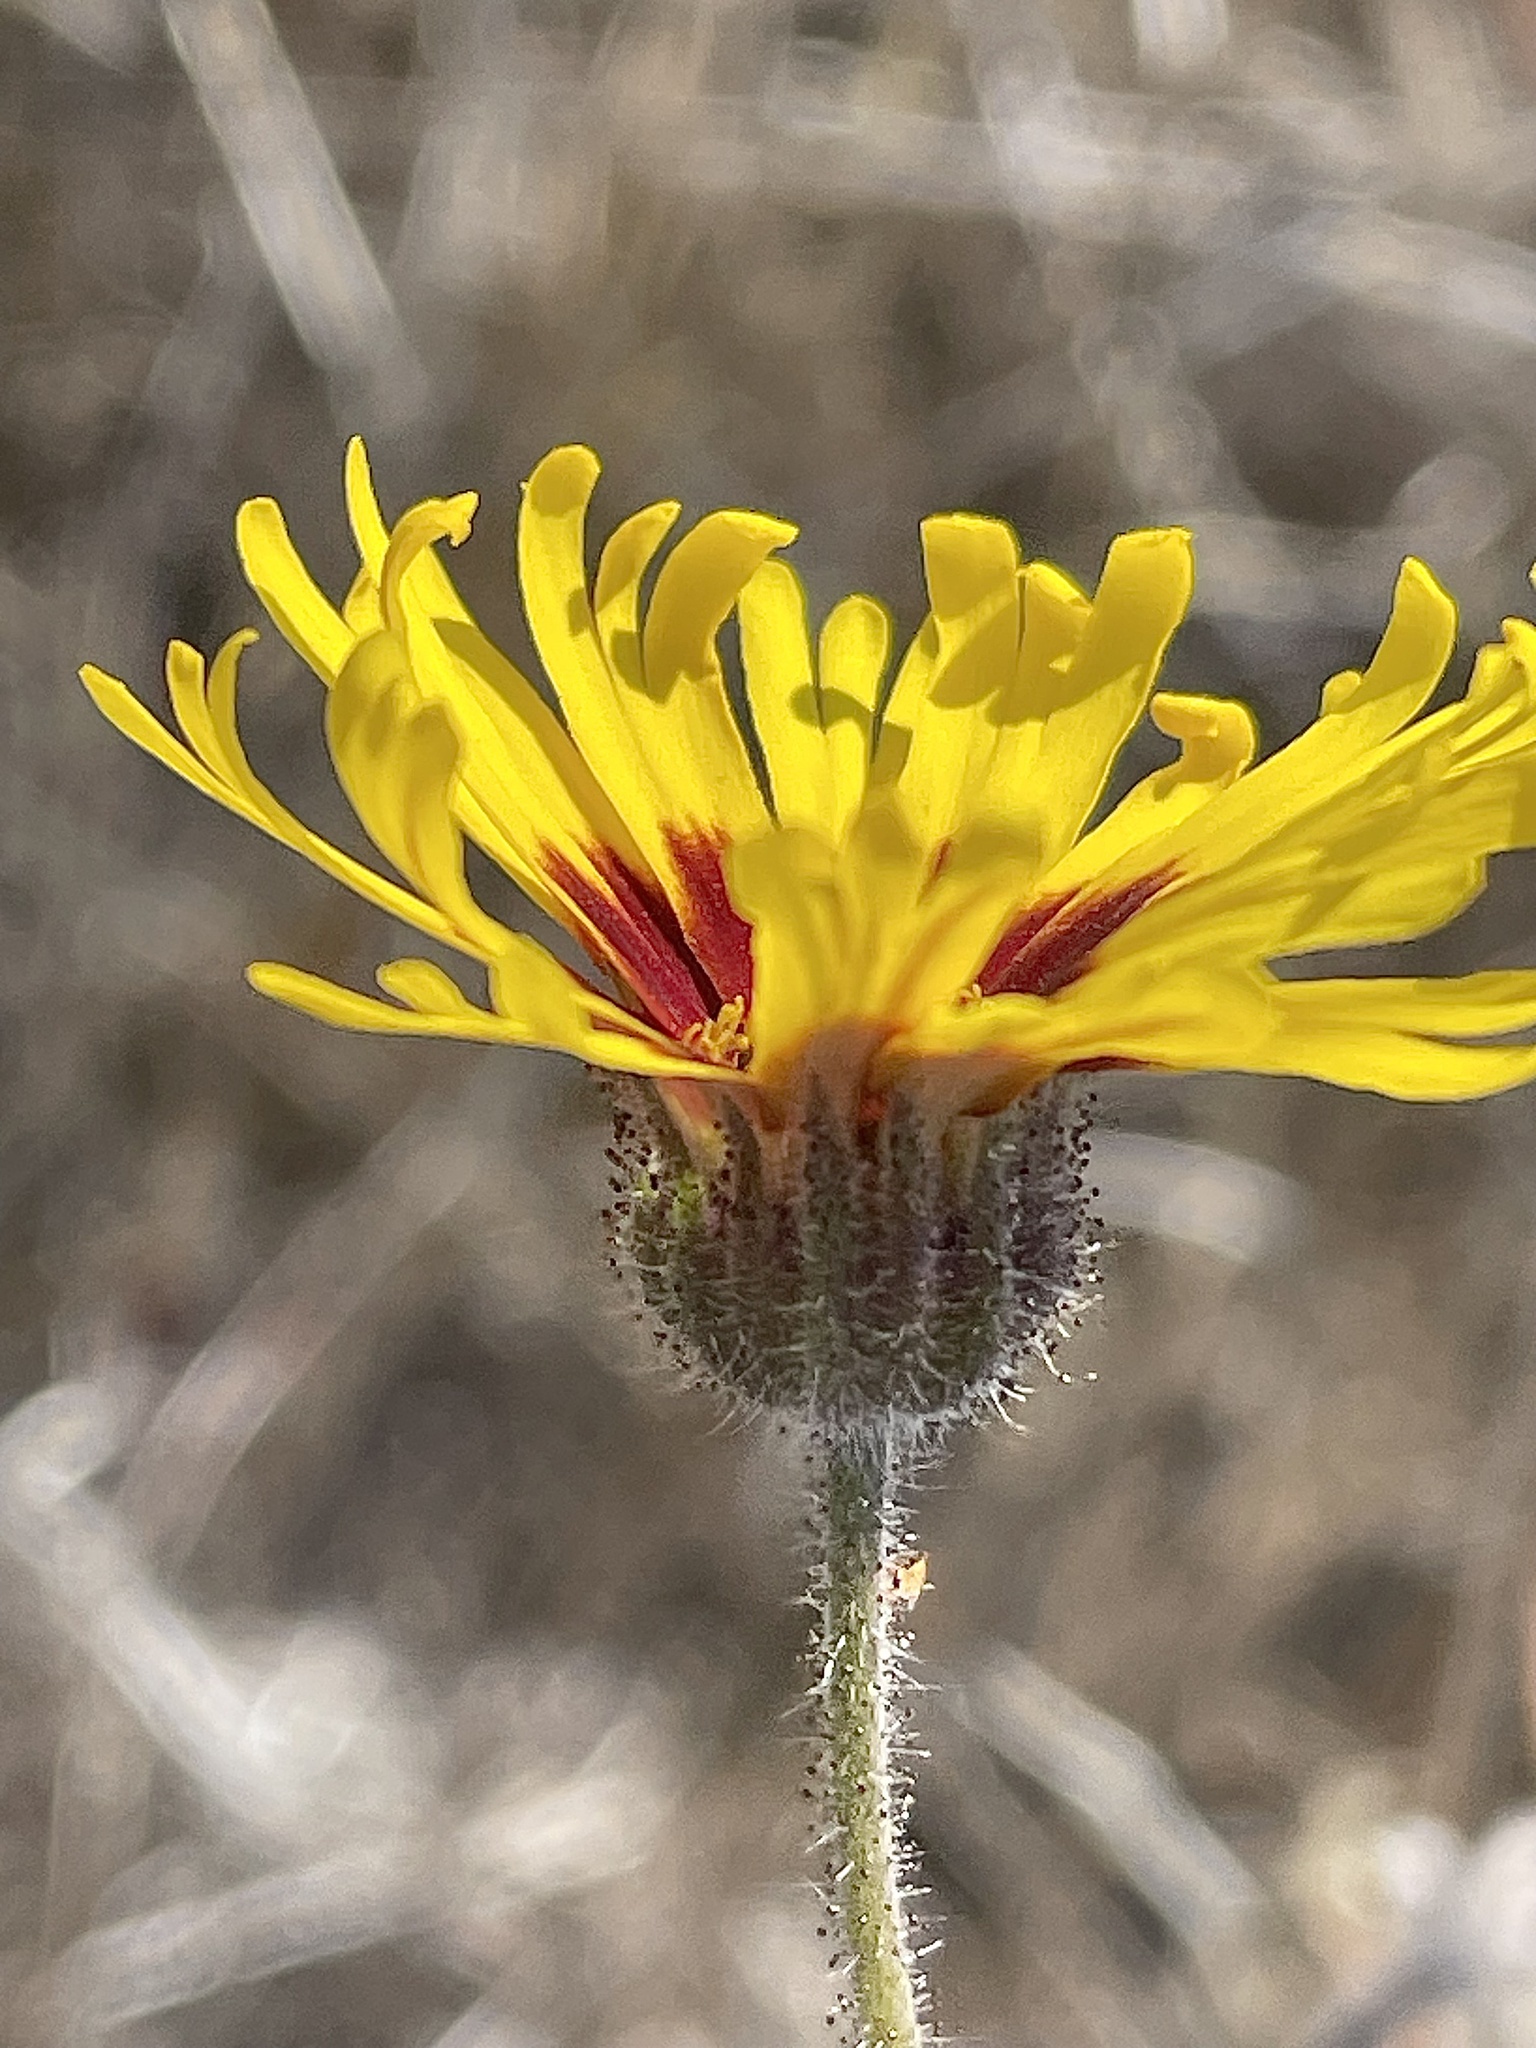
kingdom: Plantae
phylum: Tracheophyta
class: Magnoliopsida
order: Asterales
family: Asteraceae
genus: Madia
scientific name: Madia elegans
